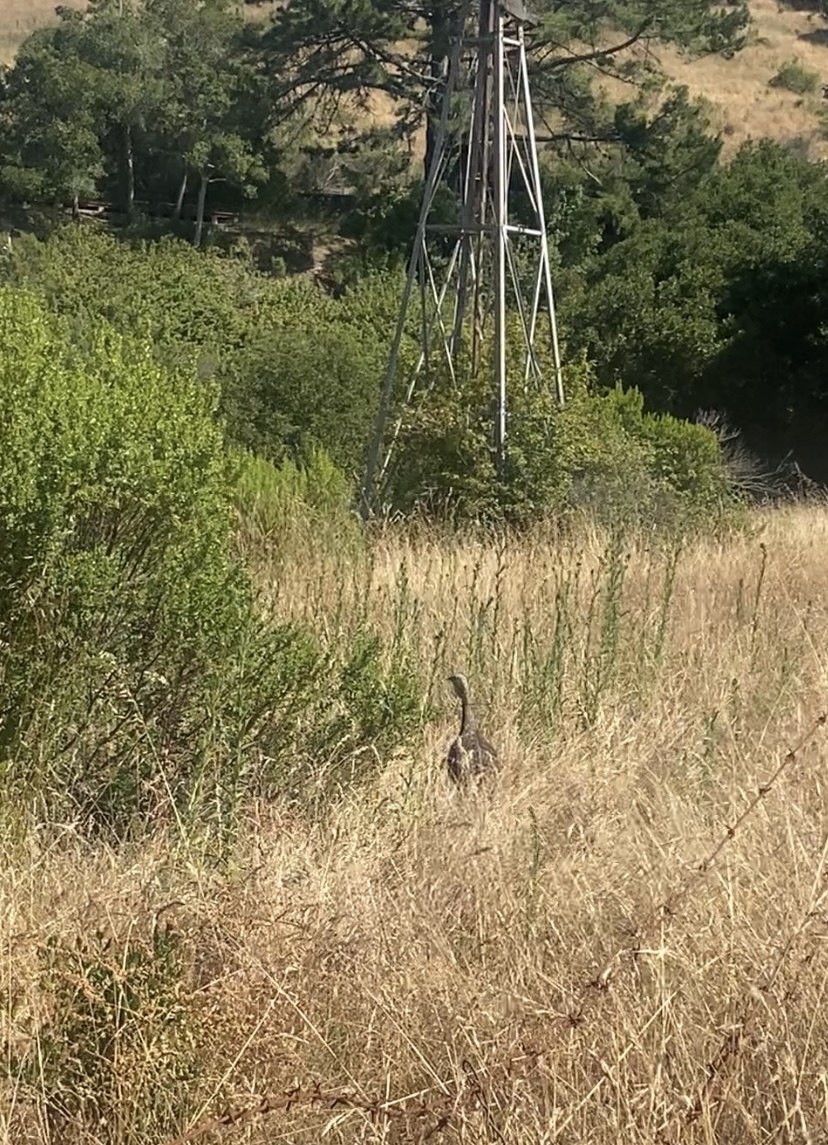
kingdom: Animalia
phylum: Chordata
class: Aves
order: Galliformes
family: Phasianidae
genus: Meleagris
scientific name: Meleagris gallopavo
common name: Wild turkey
